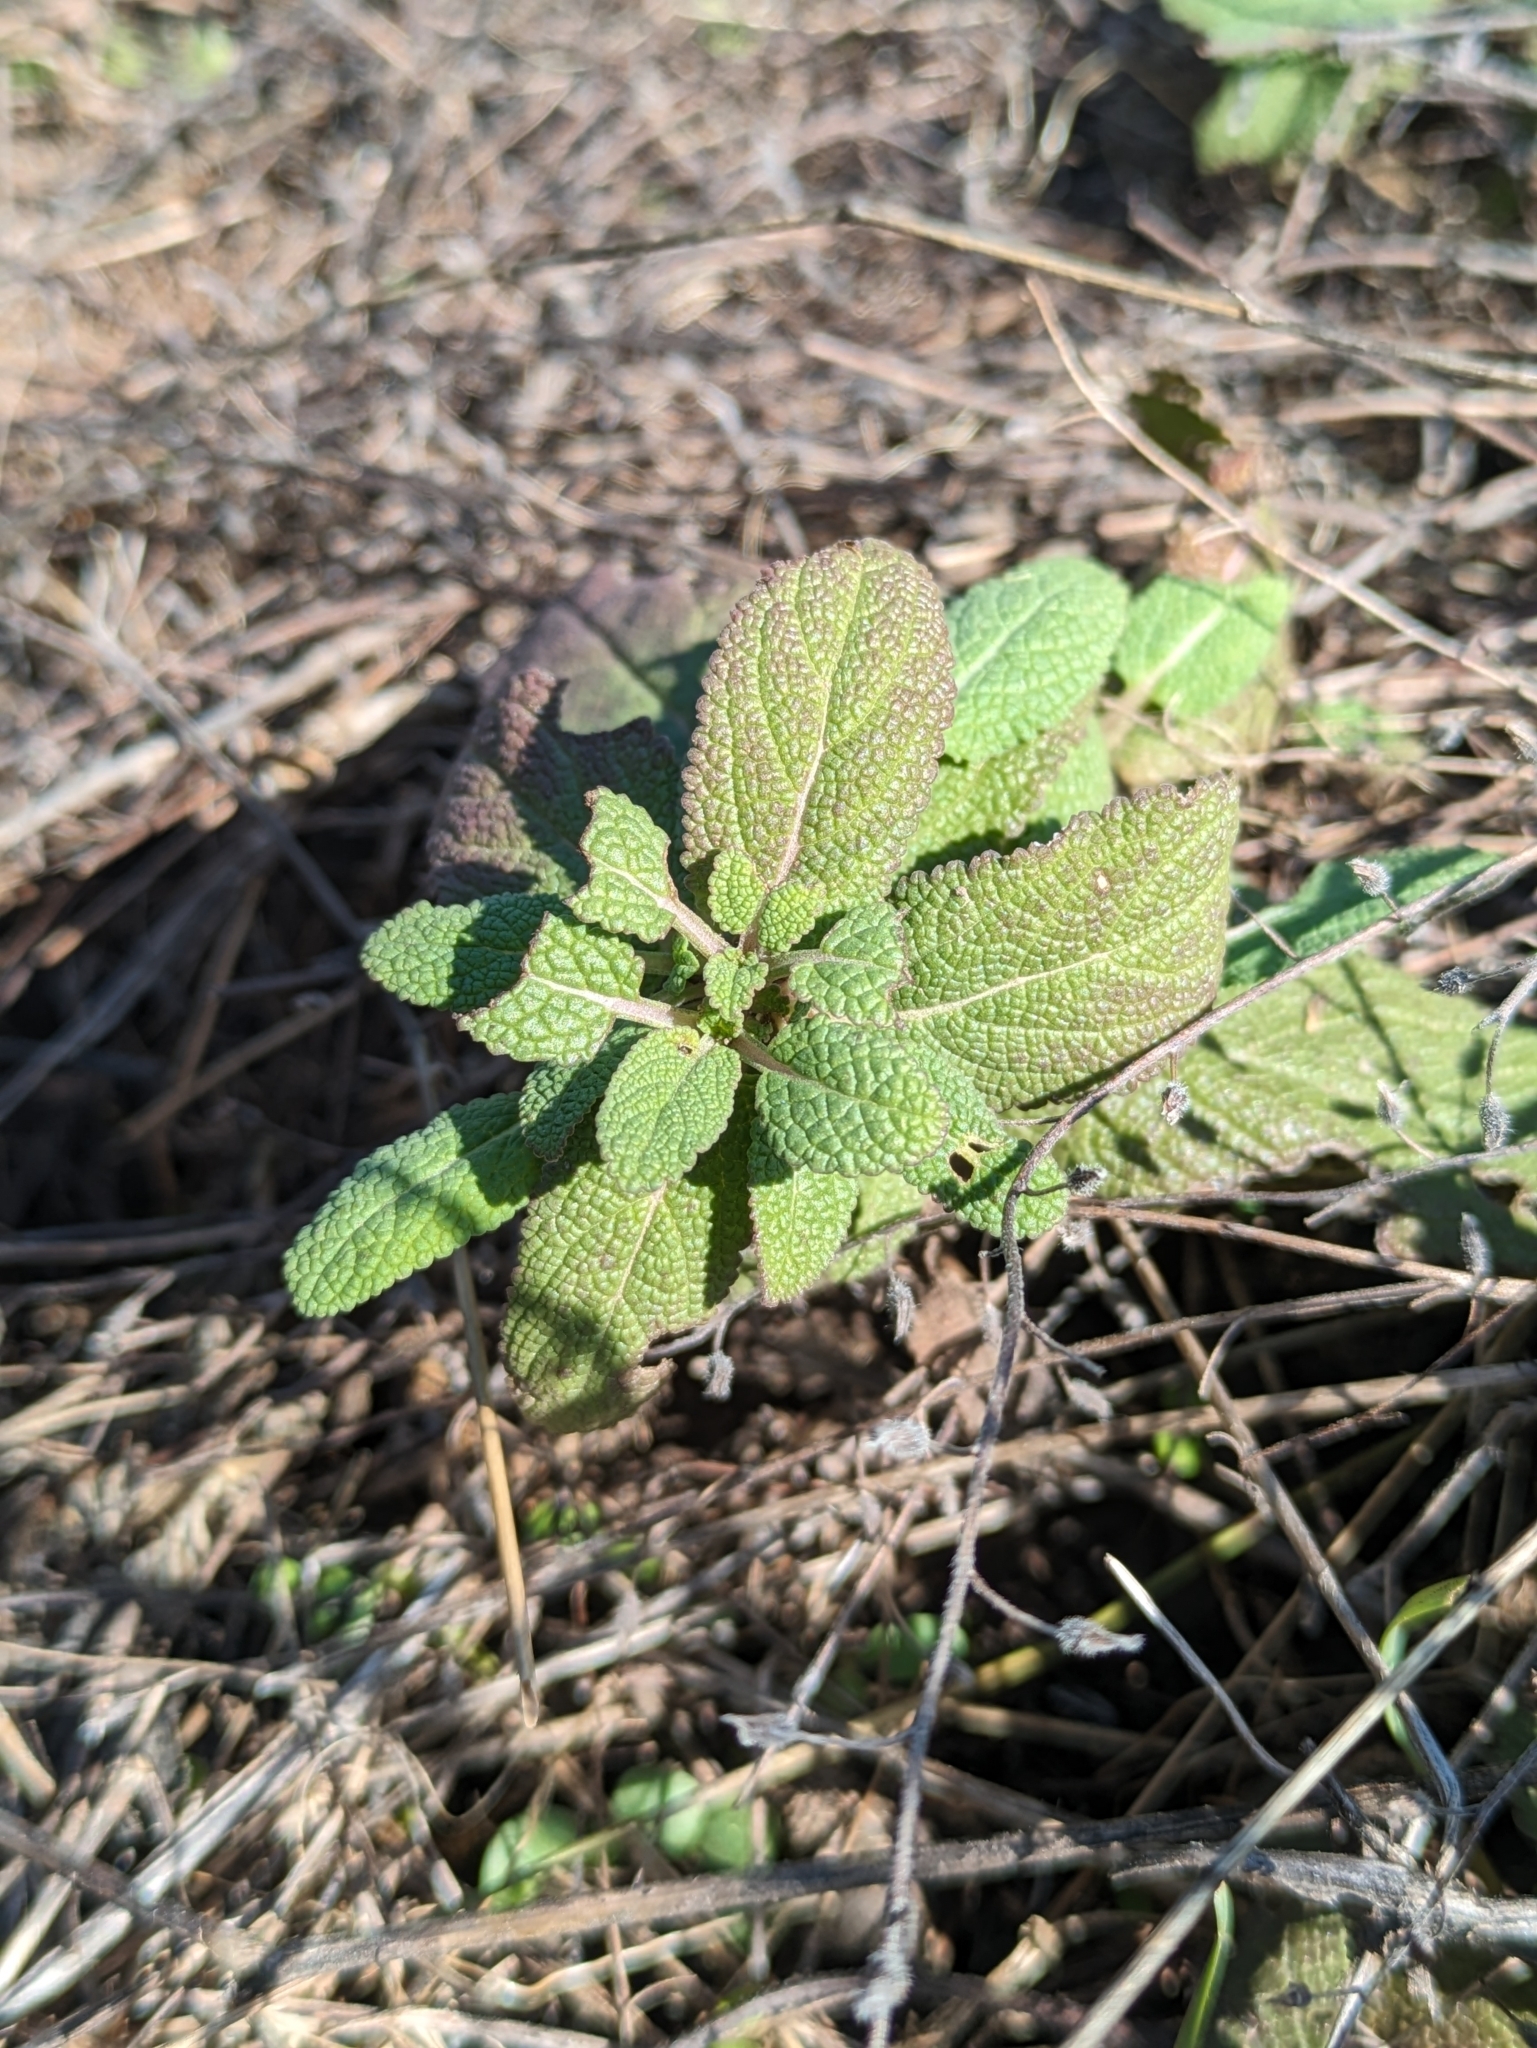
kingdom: Plantae
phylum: Tracheophyta
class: Magnoliopsida
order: Lamiales
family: Lamiaceae
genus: Salvia
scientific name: Salvia nemorosa
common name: Balkan clary
